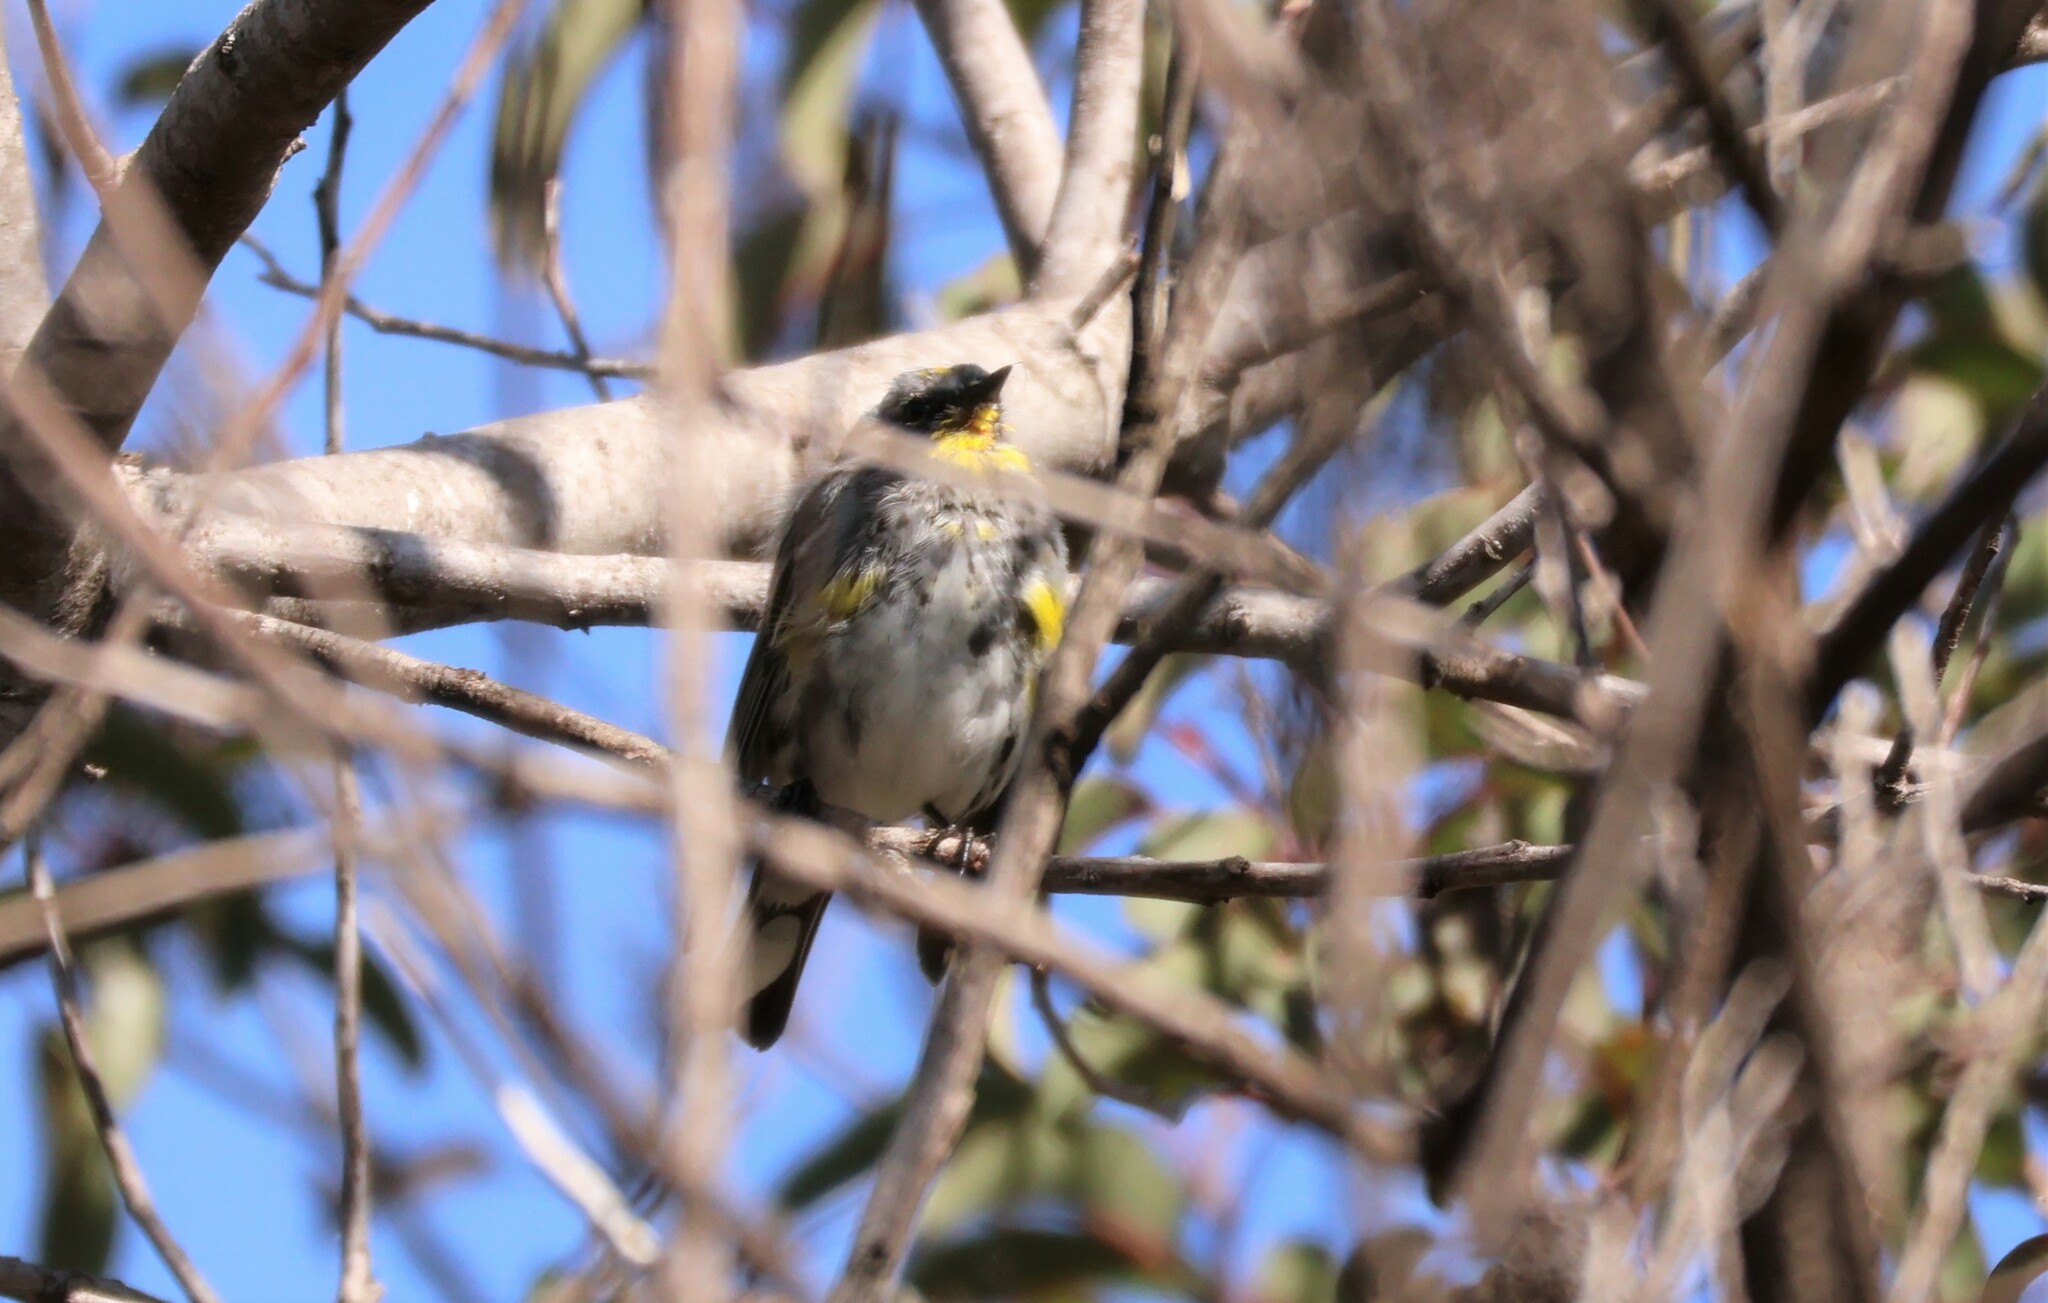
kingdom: Animalia
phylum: Chordata
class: Aves
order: Passeriformes
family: Parulidae
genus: Setophaga
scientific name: Setophaga auduboni
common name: Audubon's warbler
